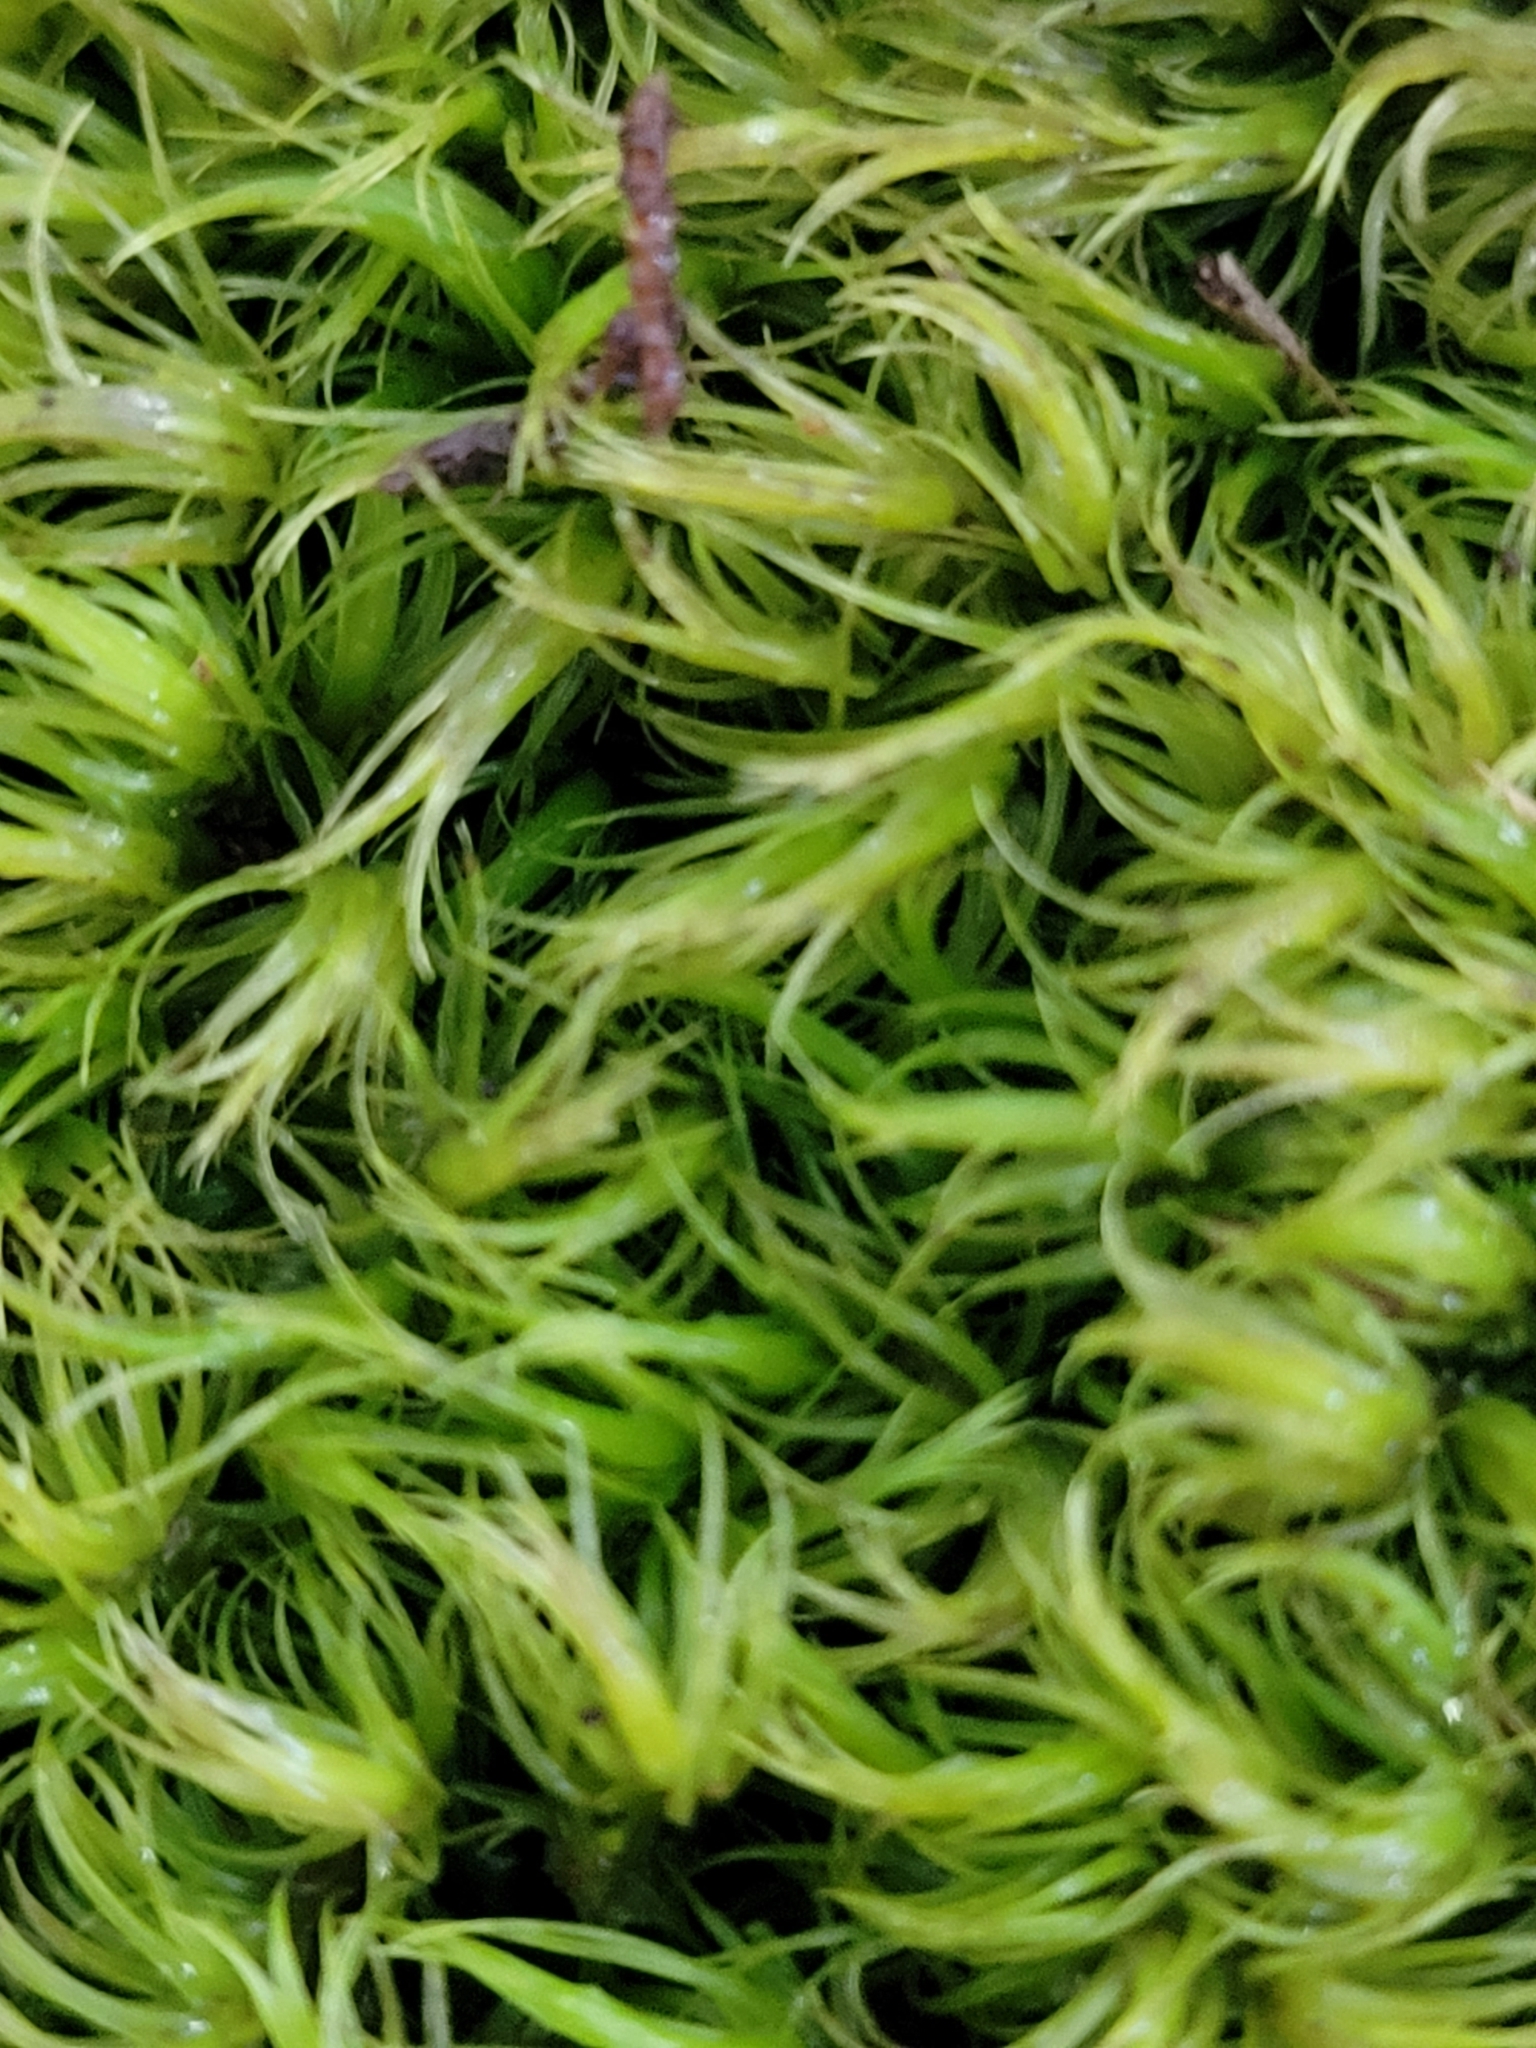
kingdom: Plantae
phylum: Bryophyta
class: Bryopsida
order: Dicranales
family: Dicranaceae
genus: Dicranum
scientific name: Dicranum scoparium
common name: Broom fork-moss
